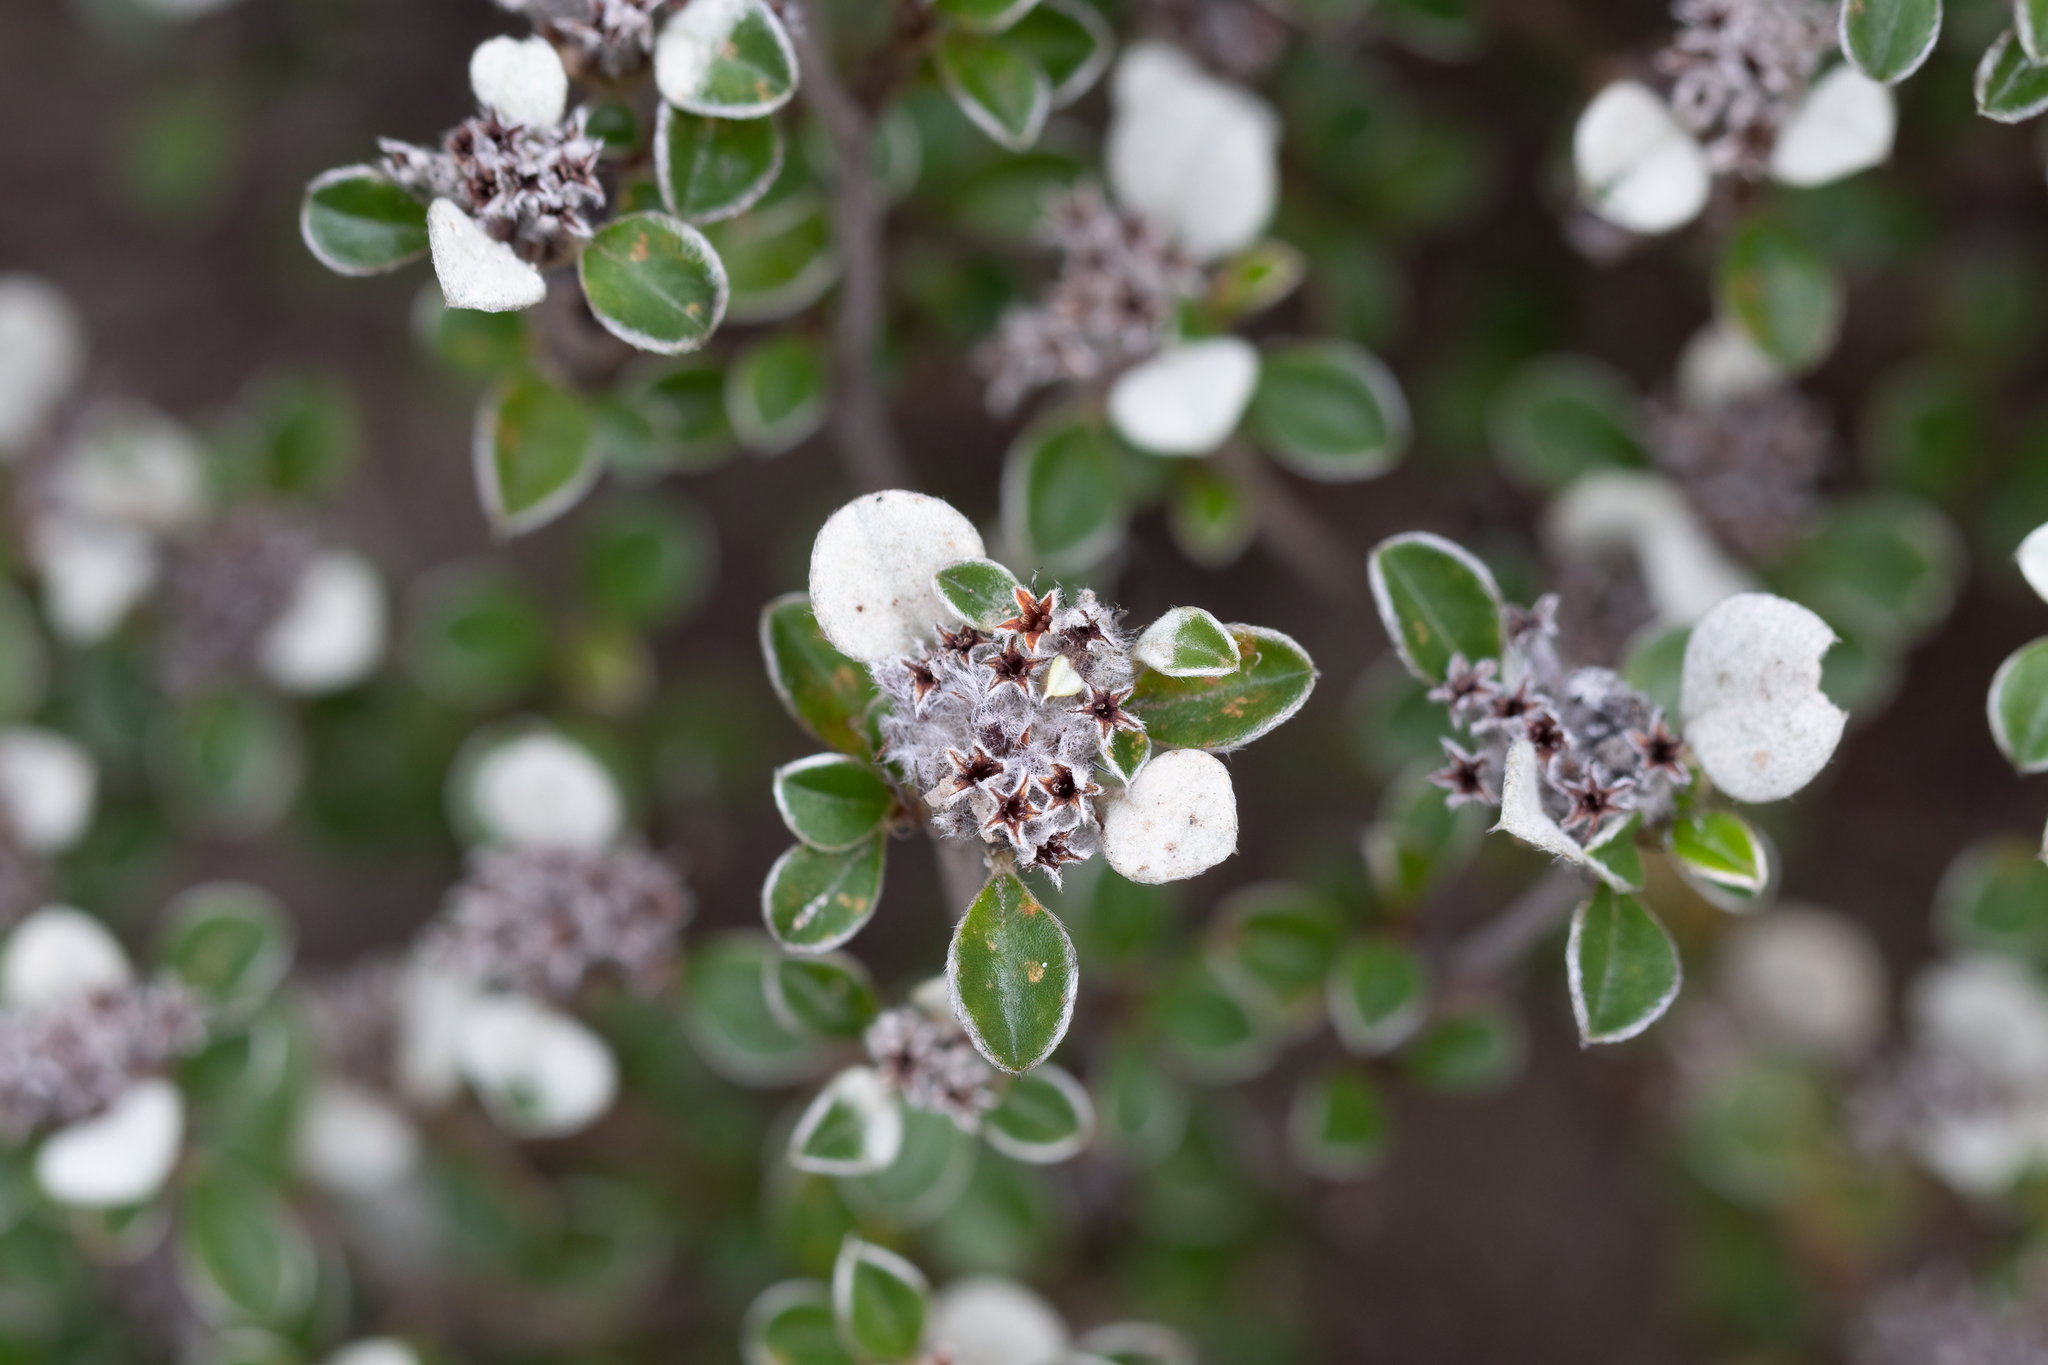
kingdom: Plantae
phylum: Tracheophyta
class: Magnoliopsida
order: Rosales
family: Rhamnaceae
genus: Cryptandra
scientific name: Cryptandra leucophracta
